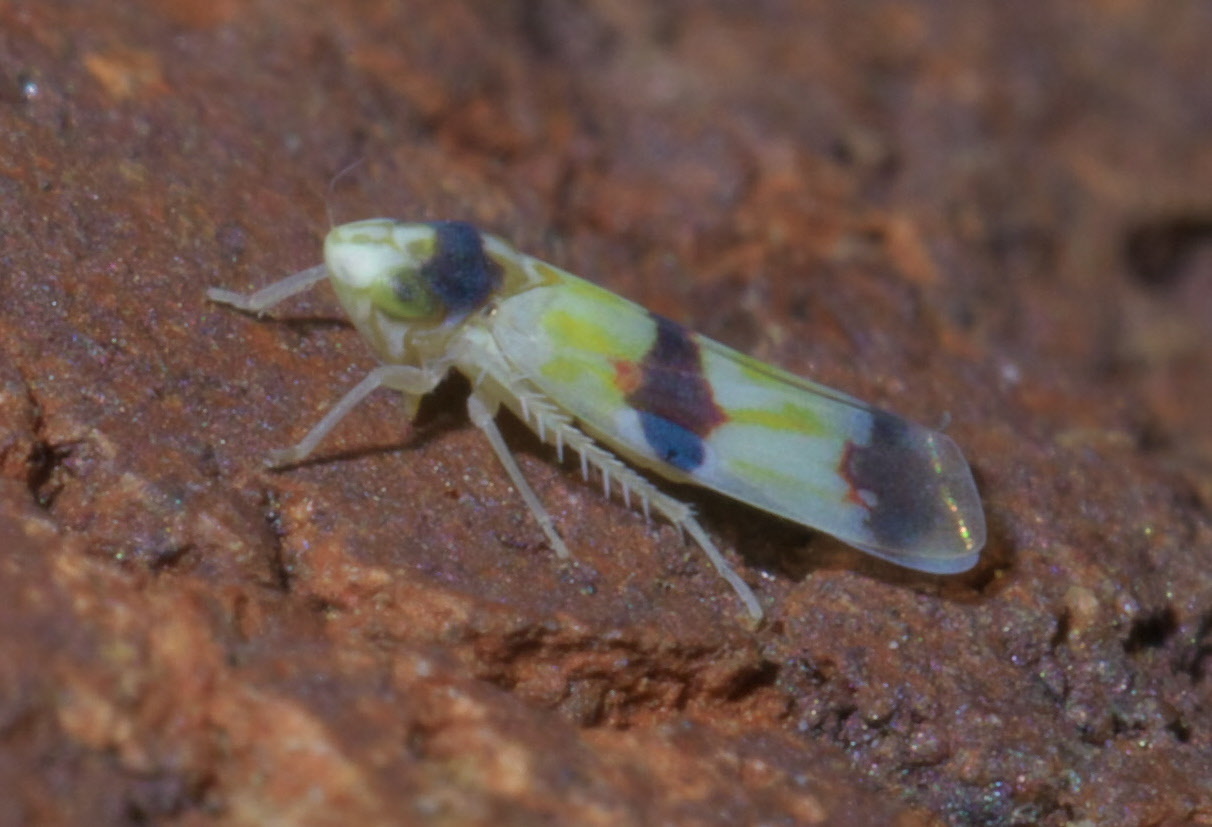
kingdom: Animalia
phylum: Arthropoda
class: Insecta
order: Hemiptera
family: Cicadellidae
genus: Erythroneura
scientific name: Erythroneura cymbium
